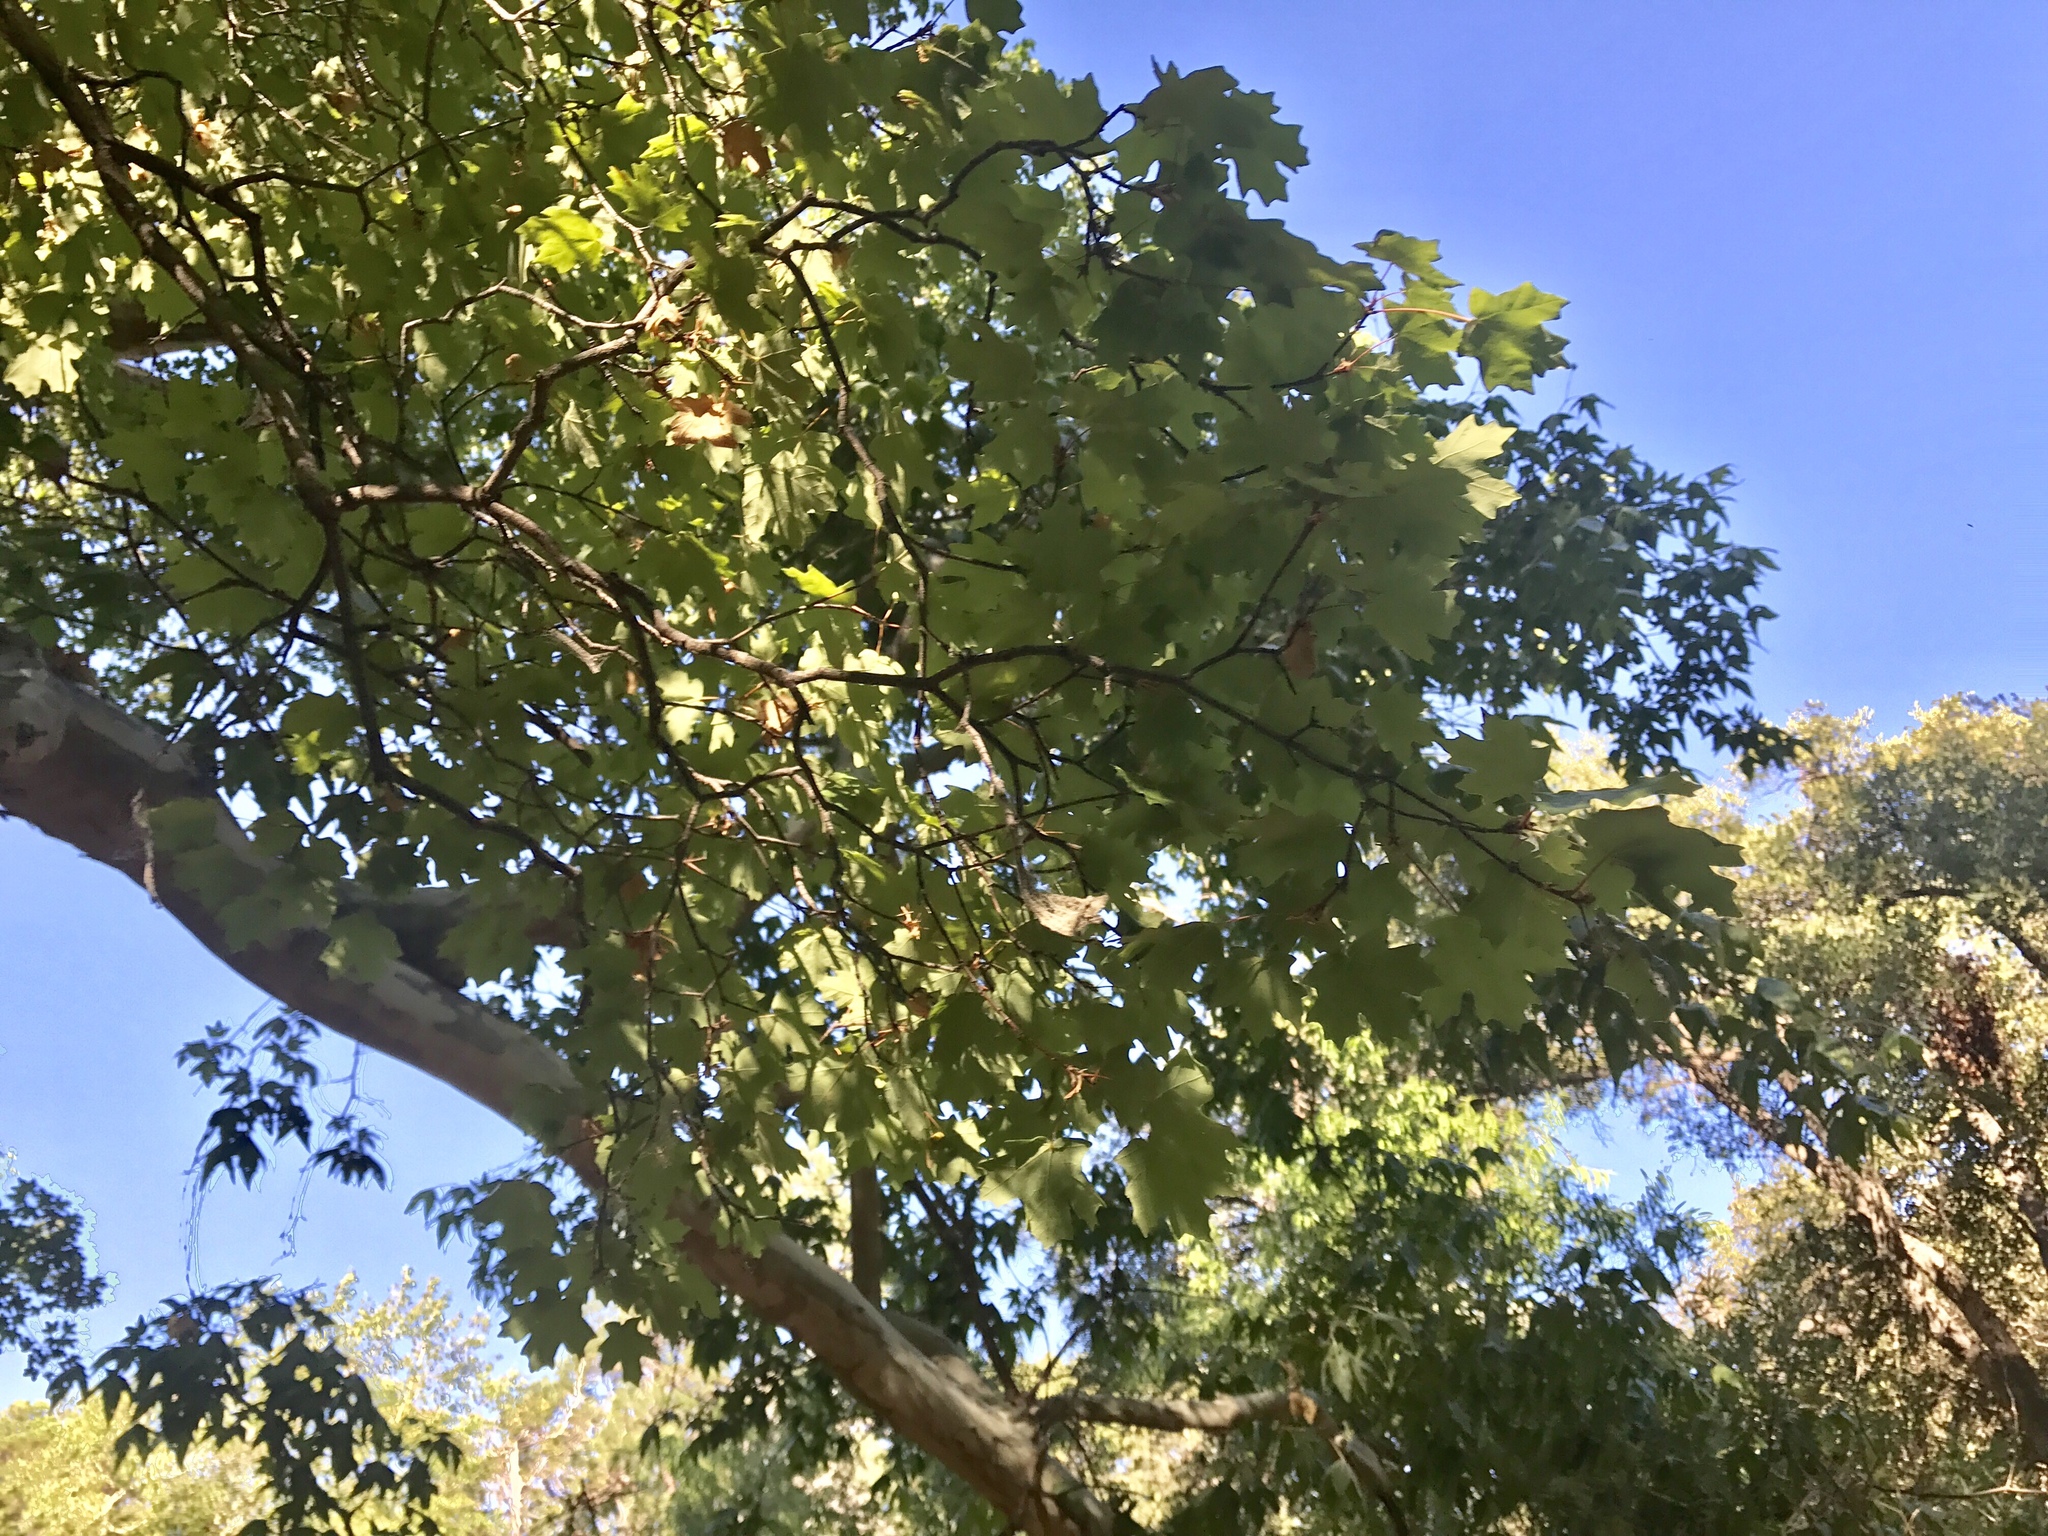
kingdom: Plantae
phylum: Tracheophyta
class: Magnoliopsida
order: Proteales
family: Platanaceae
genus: Platanus
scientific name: Platanus wrightii
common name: Arizona sycamore
